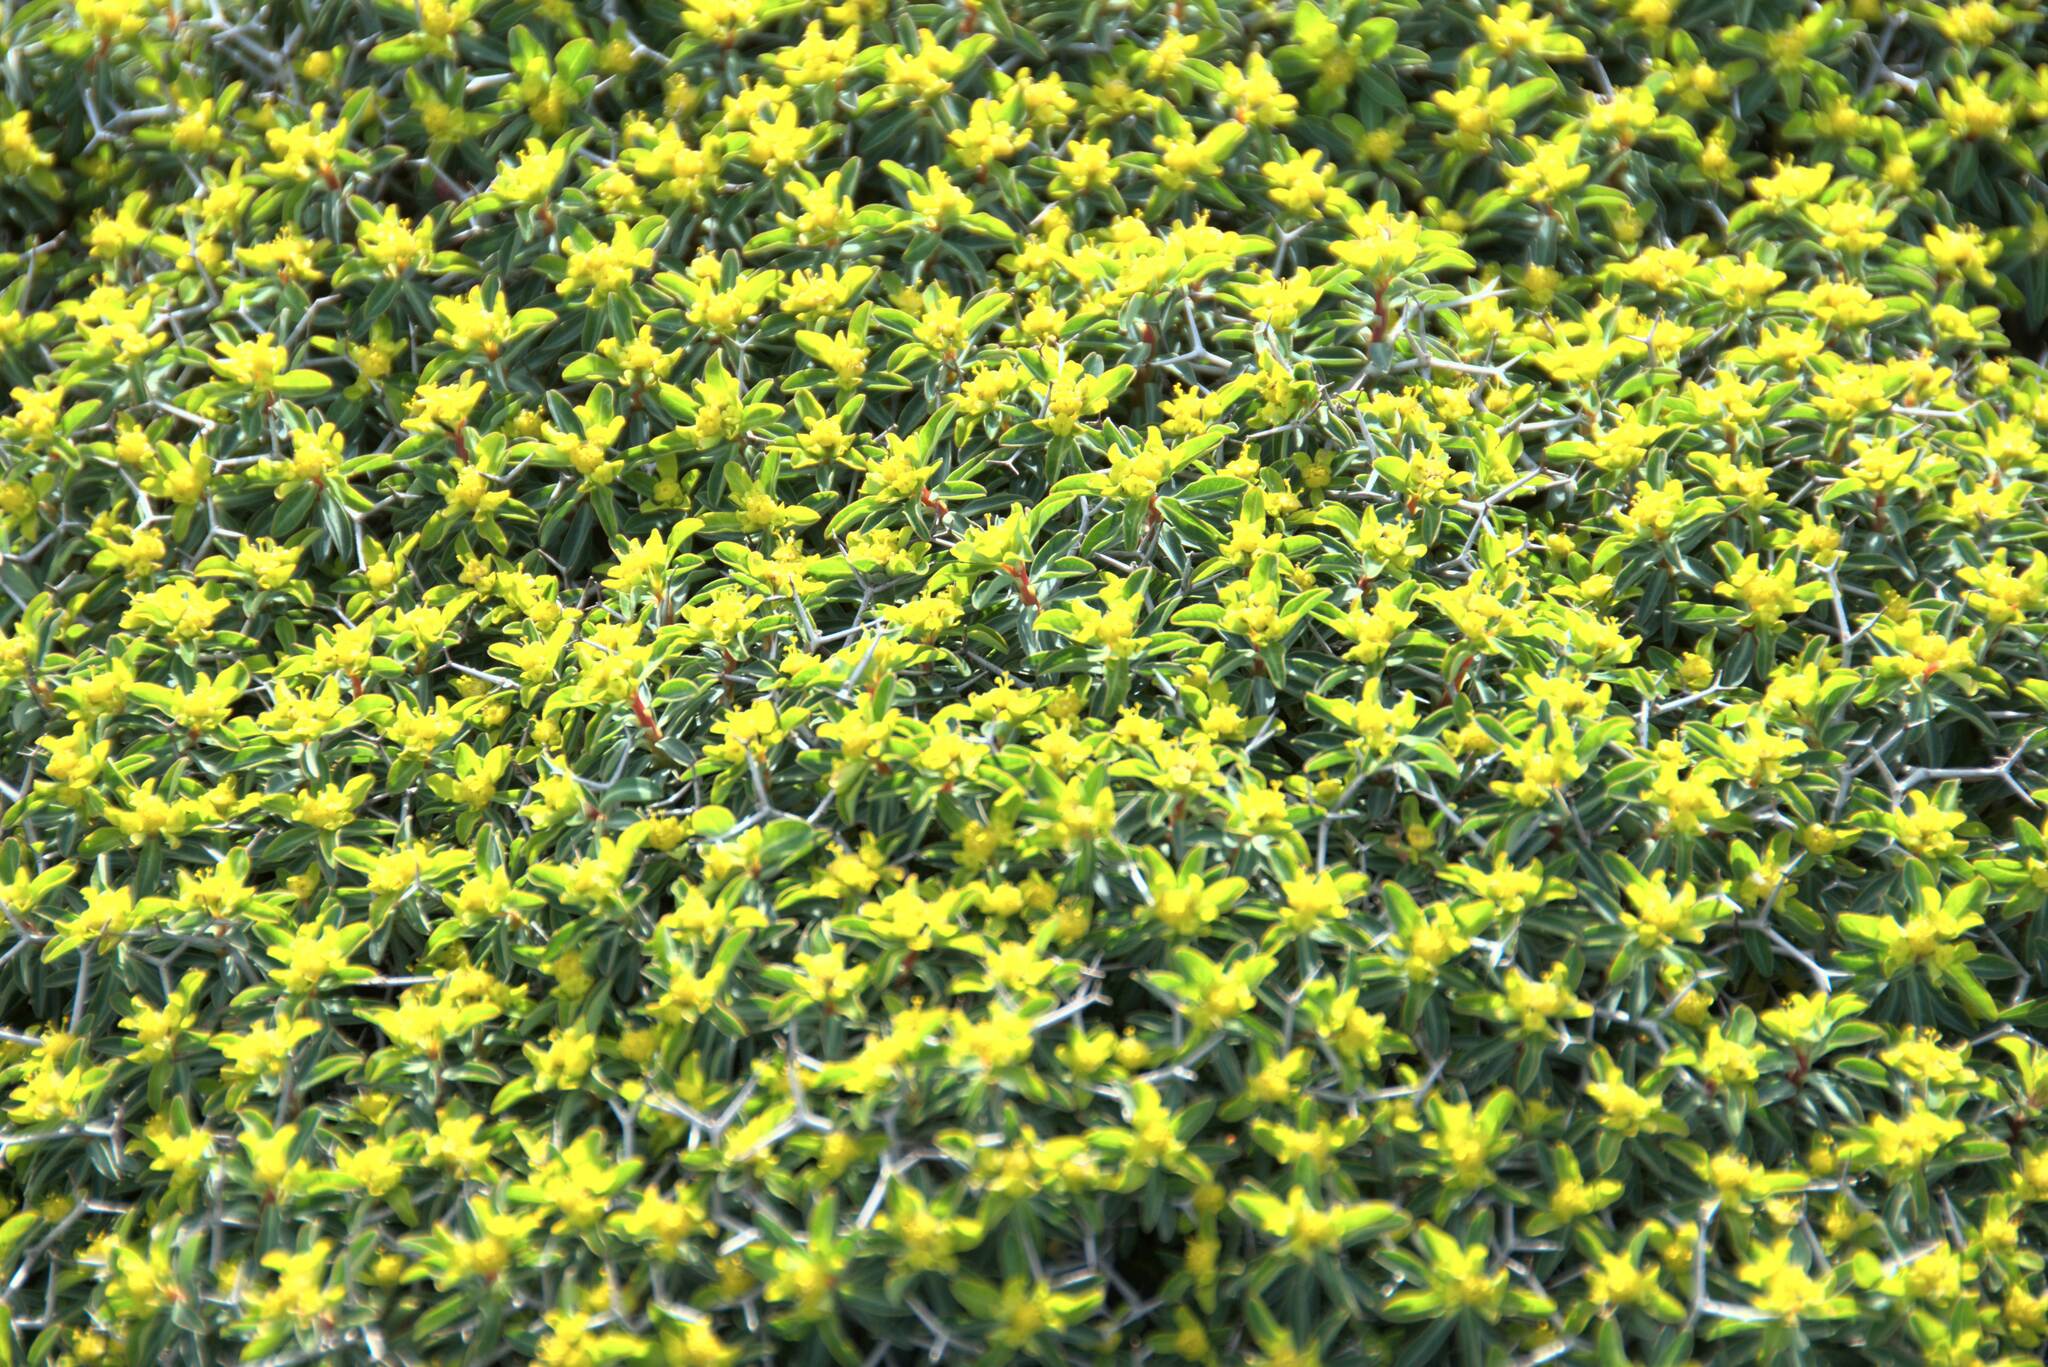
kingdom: Plantae
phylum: Tracheophyta
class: Magnoliopsida
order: Malpighiales
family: Euphorbiaceae
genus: Euphorbia
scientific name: Euphorbia acanthothamnos
